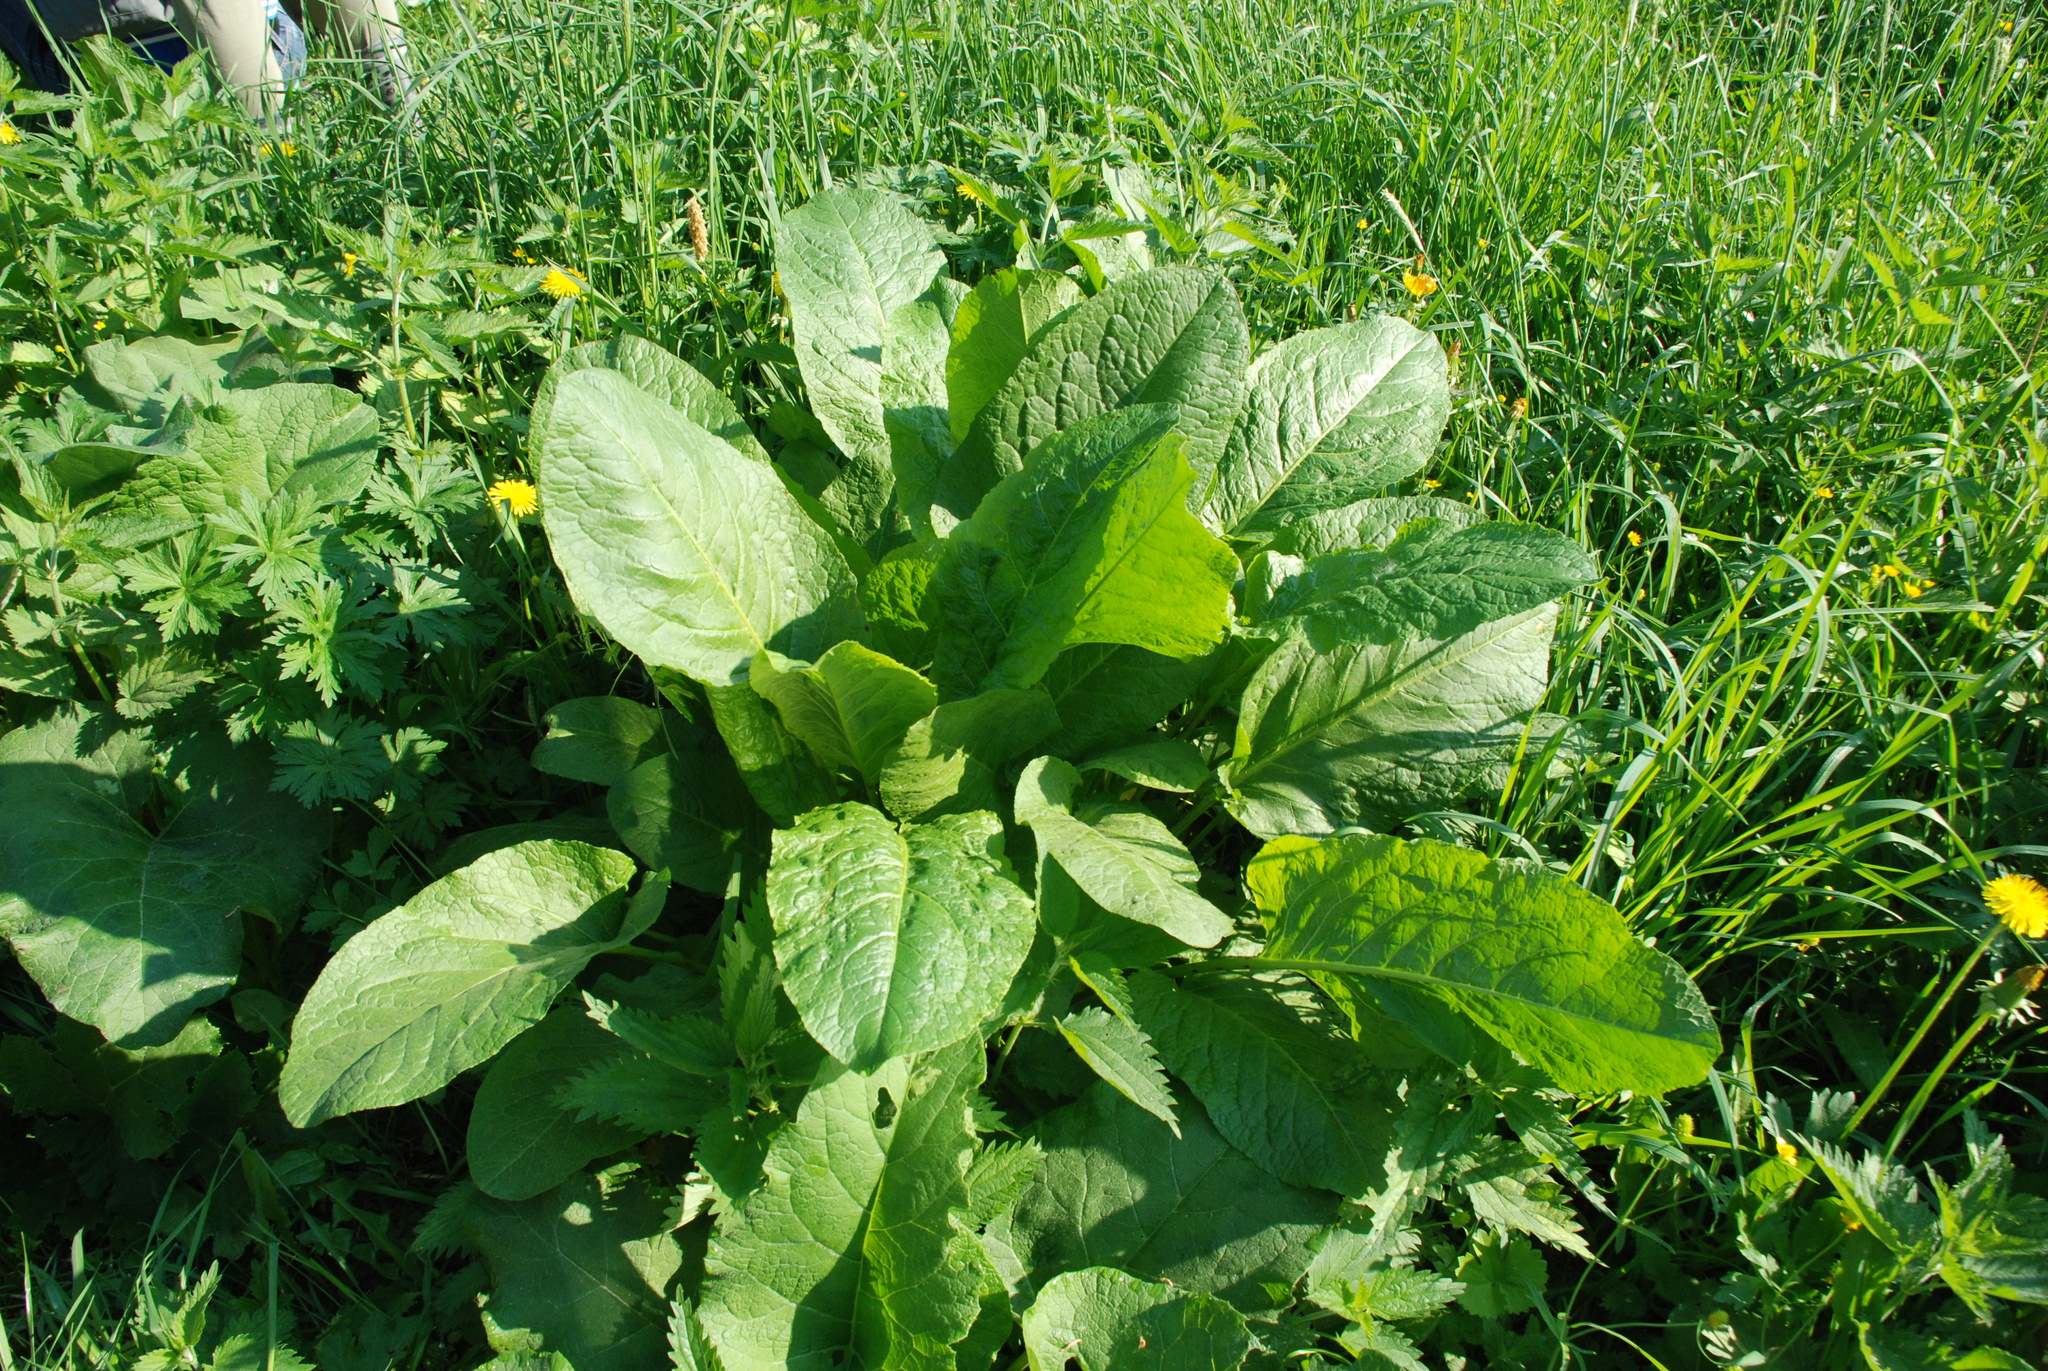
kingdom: Plantae
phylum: Tracheophyta
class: Magnoliopsida
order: Caryophyllales
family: Polygonaceae
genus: Rumex
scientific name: Rumex obtusifolius
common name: Bitter dock
